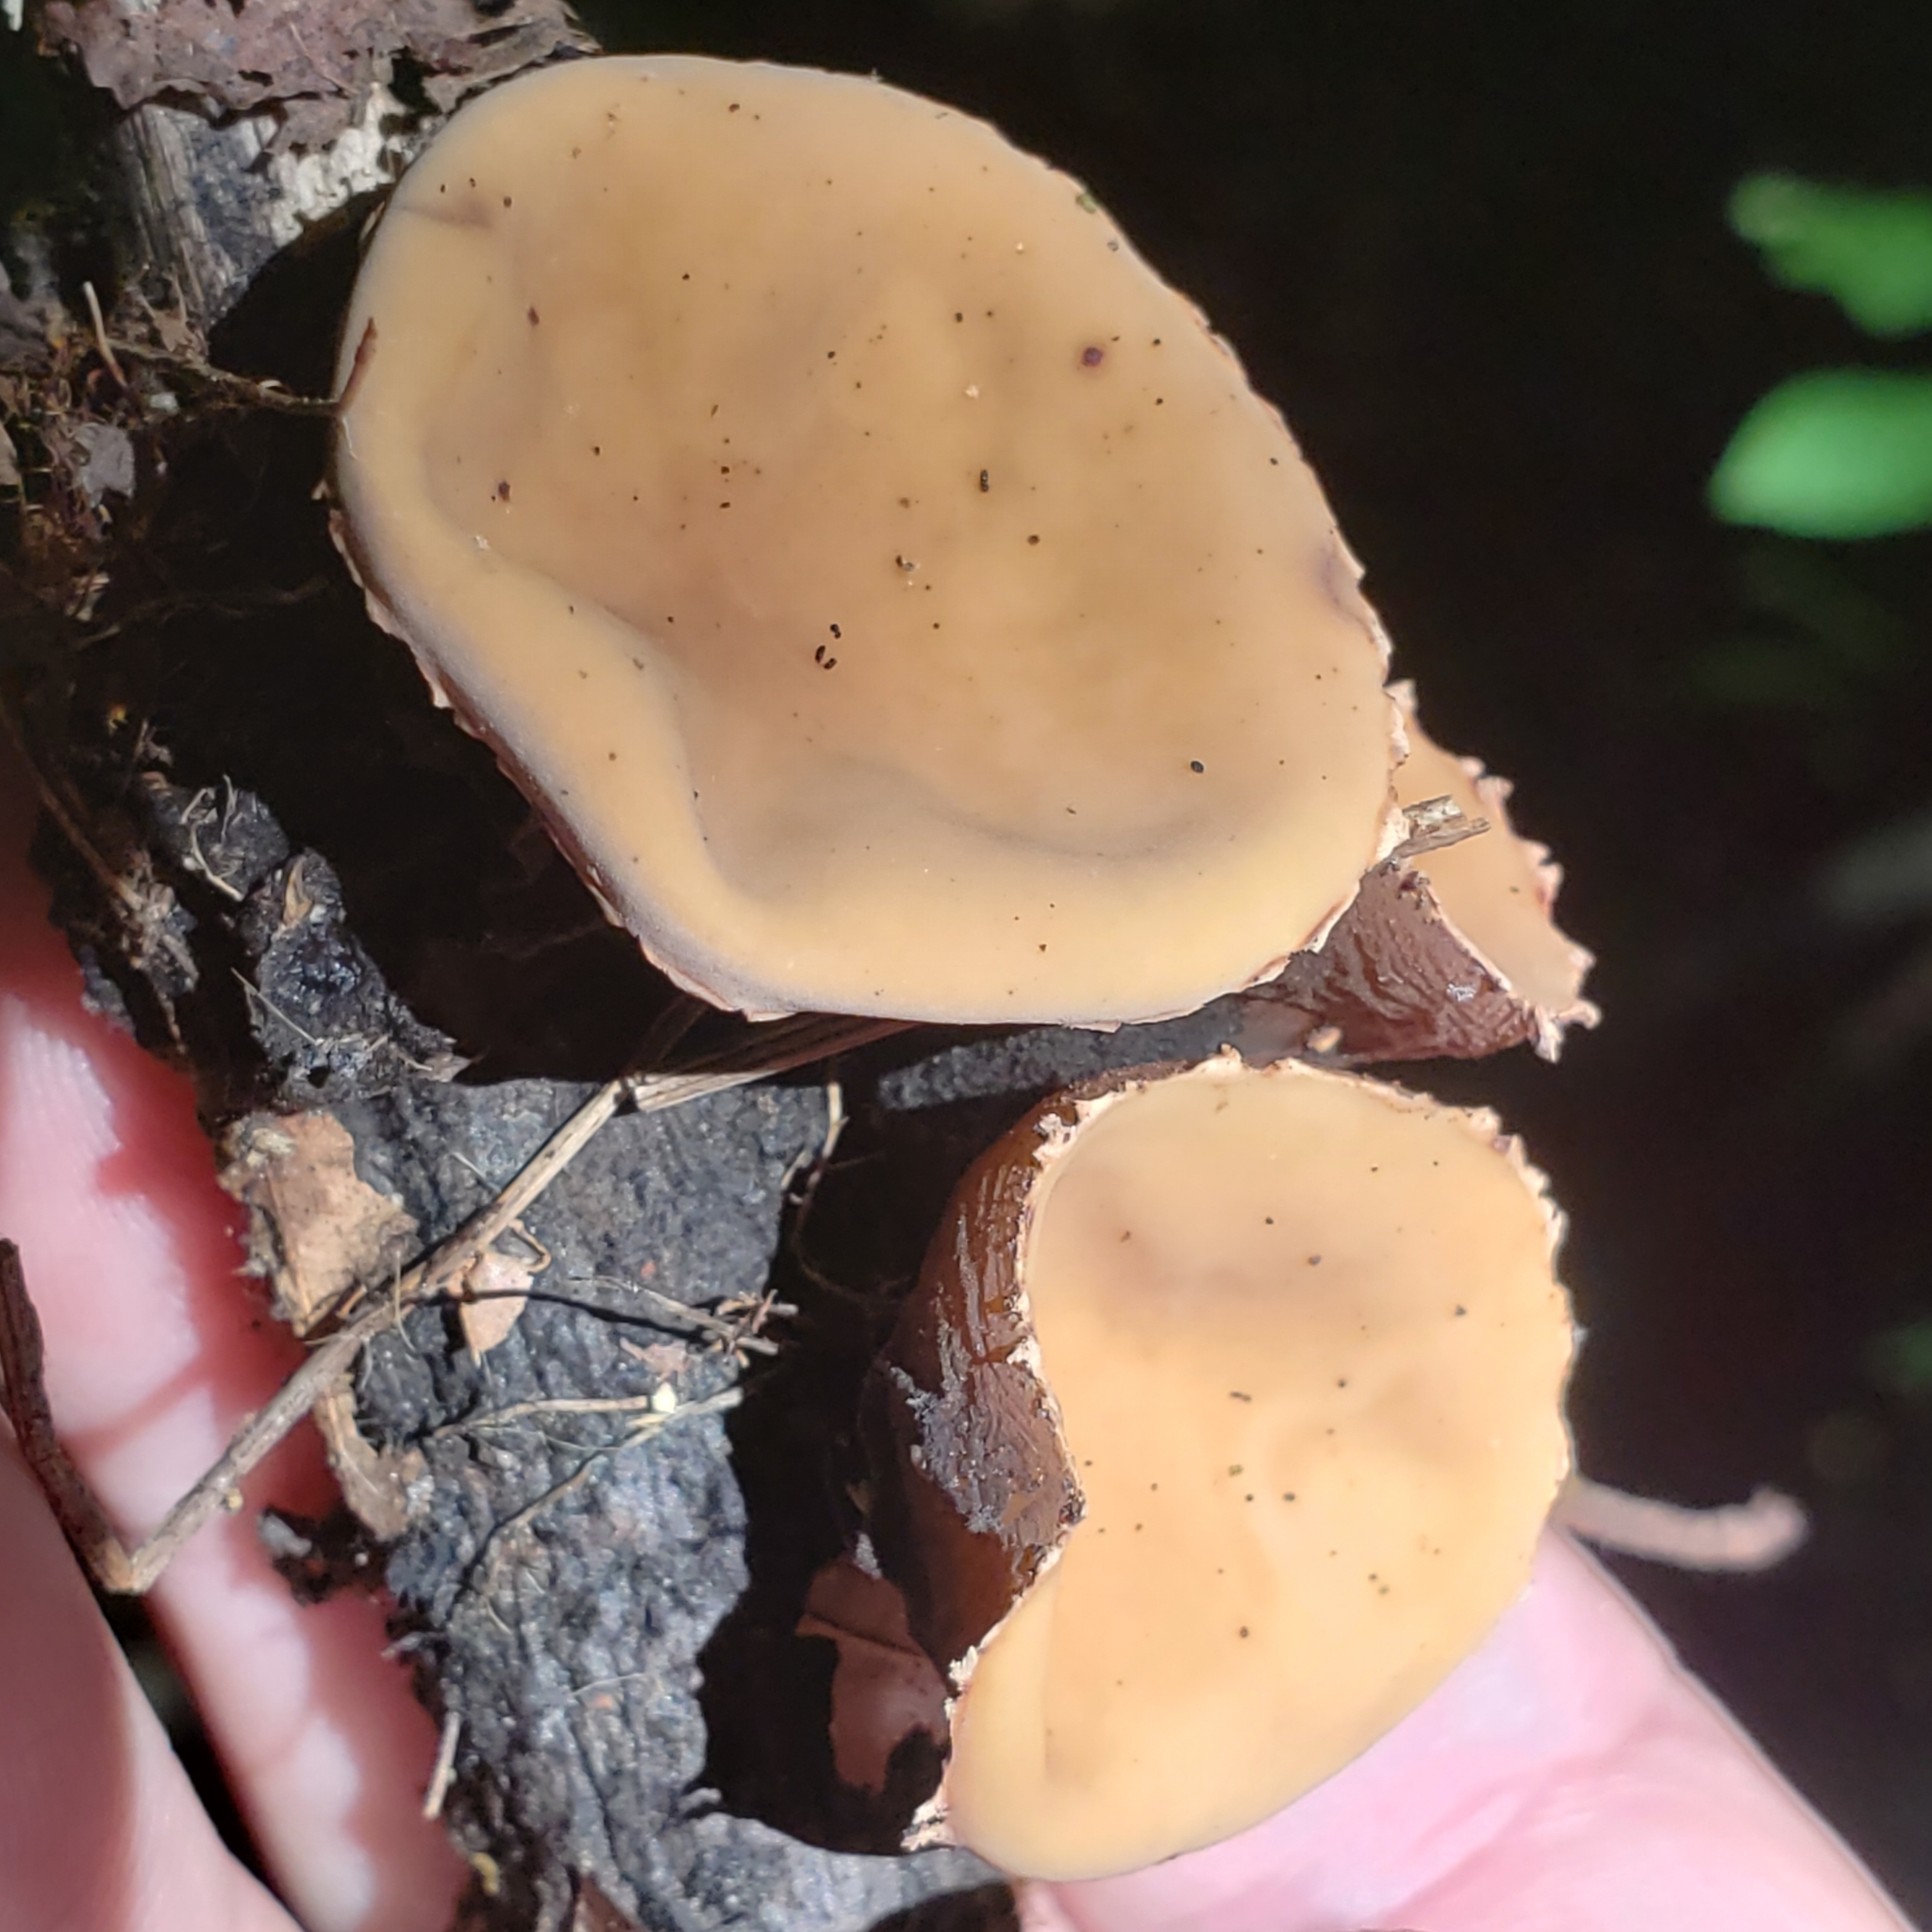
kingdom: Fungi
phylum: Ascomycota
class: Pezizomycetes
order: Pezizales
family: Sarcosomataceae
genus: Galiella
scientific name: Galiella rufa
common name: Hairy rubber cup
